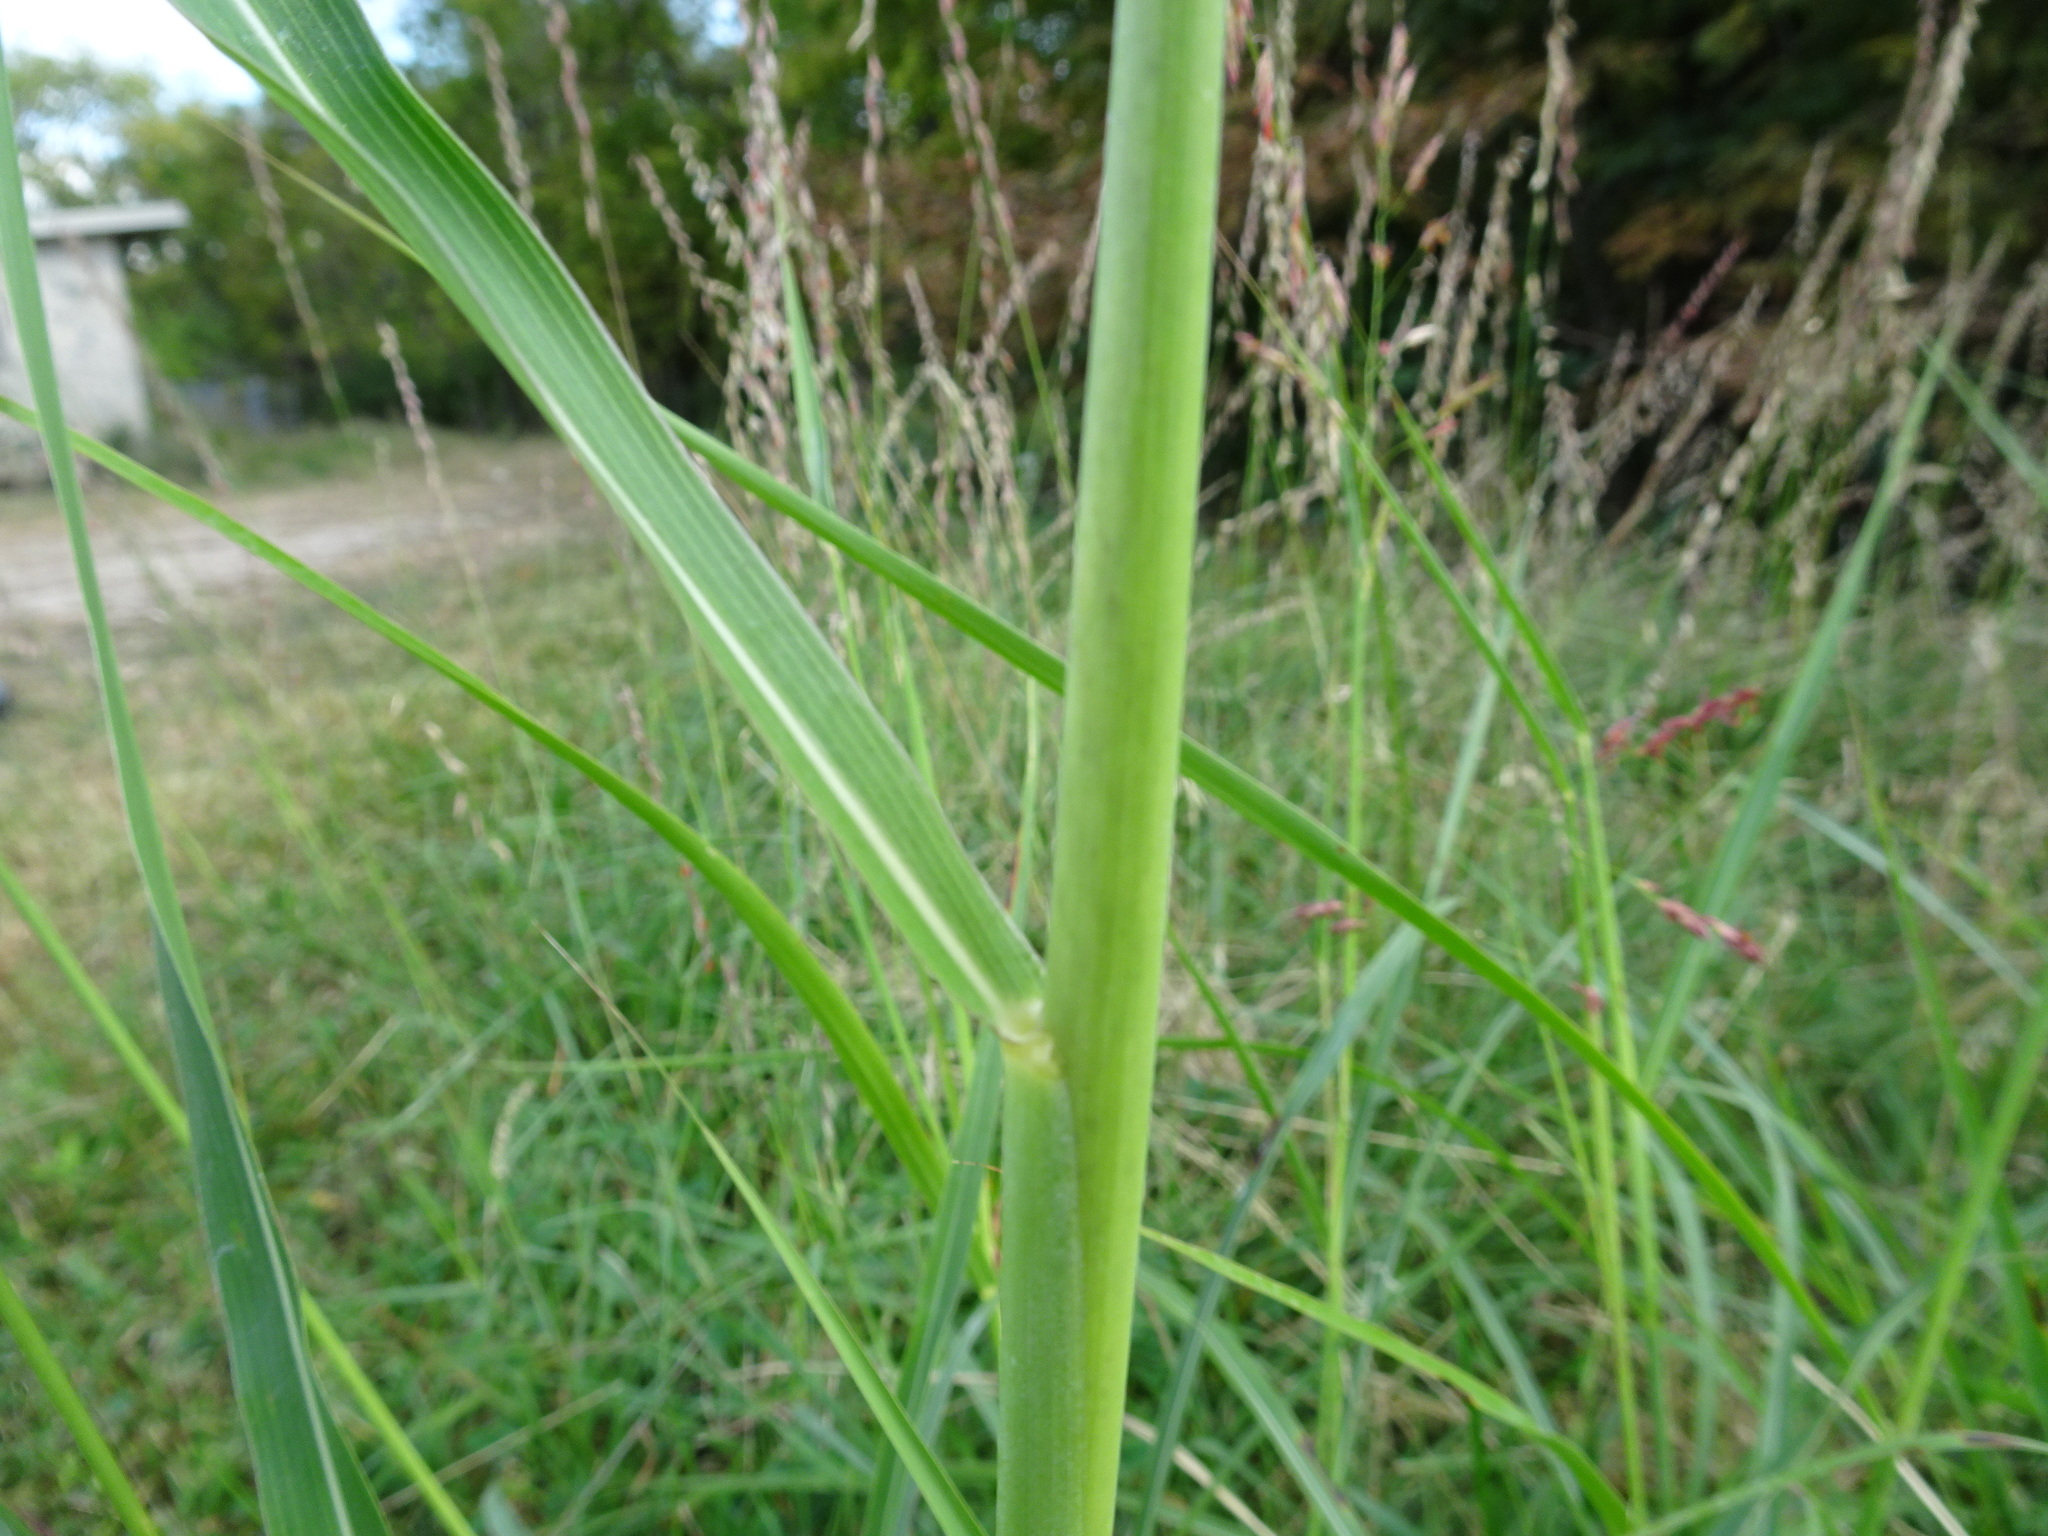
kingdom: Plantae
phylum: Tracheophyta
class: Liliopsida
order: Poales
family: Poaceae
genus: Sorghum
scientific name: Sorghum halepense
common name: Johnson-grass
